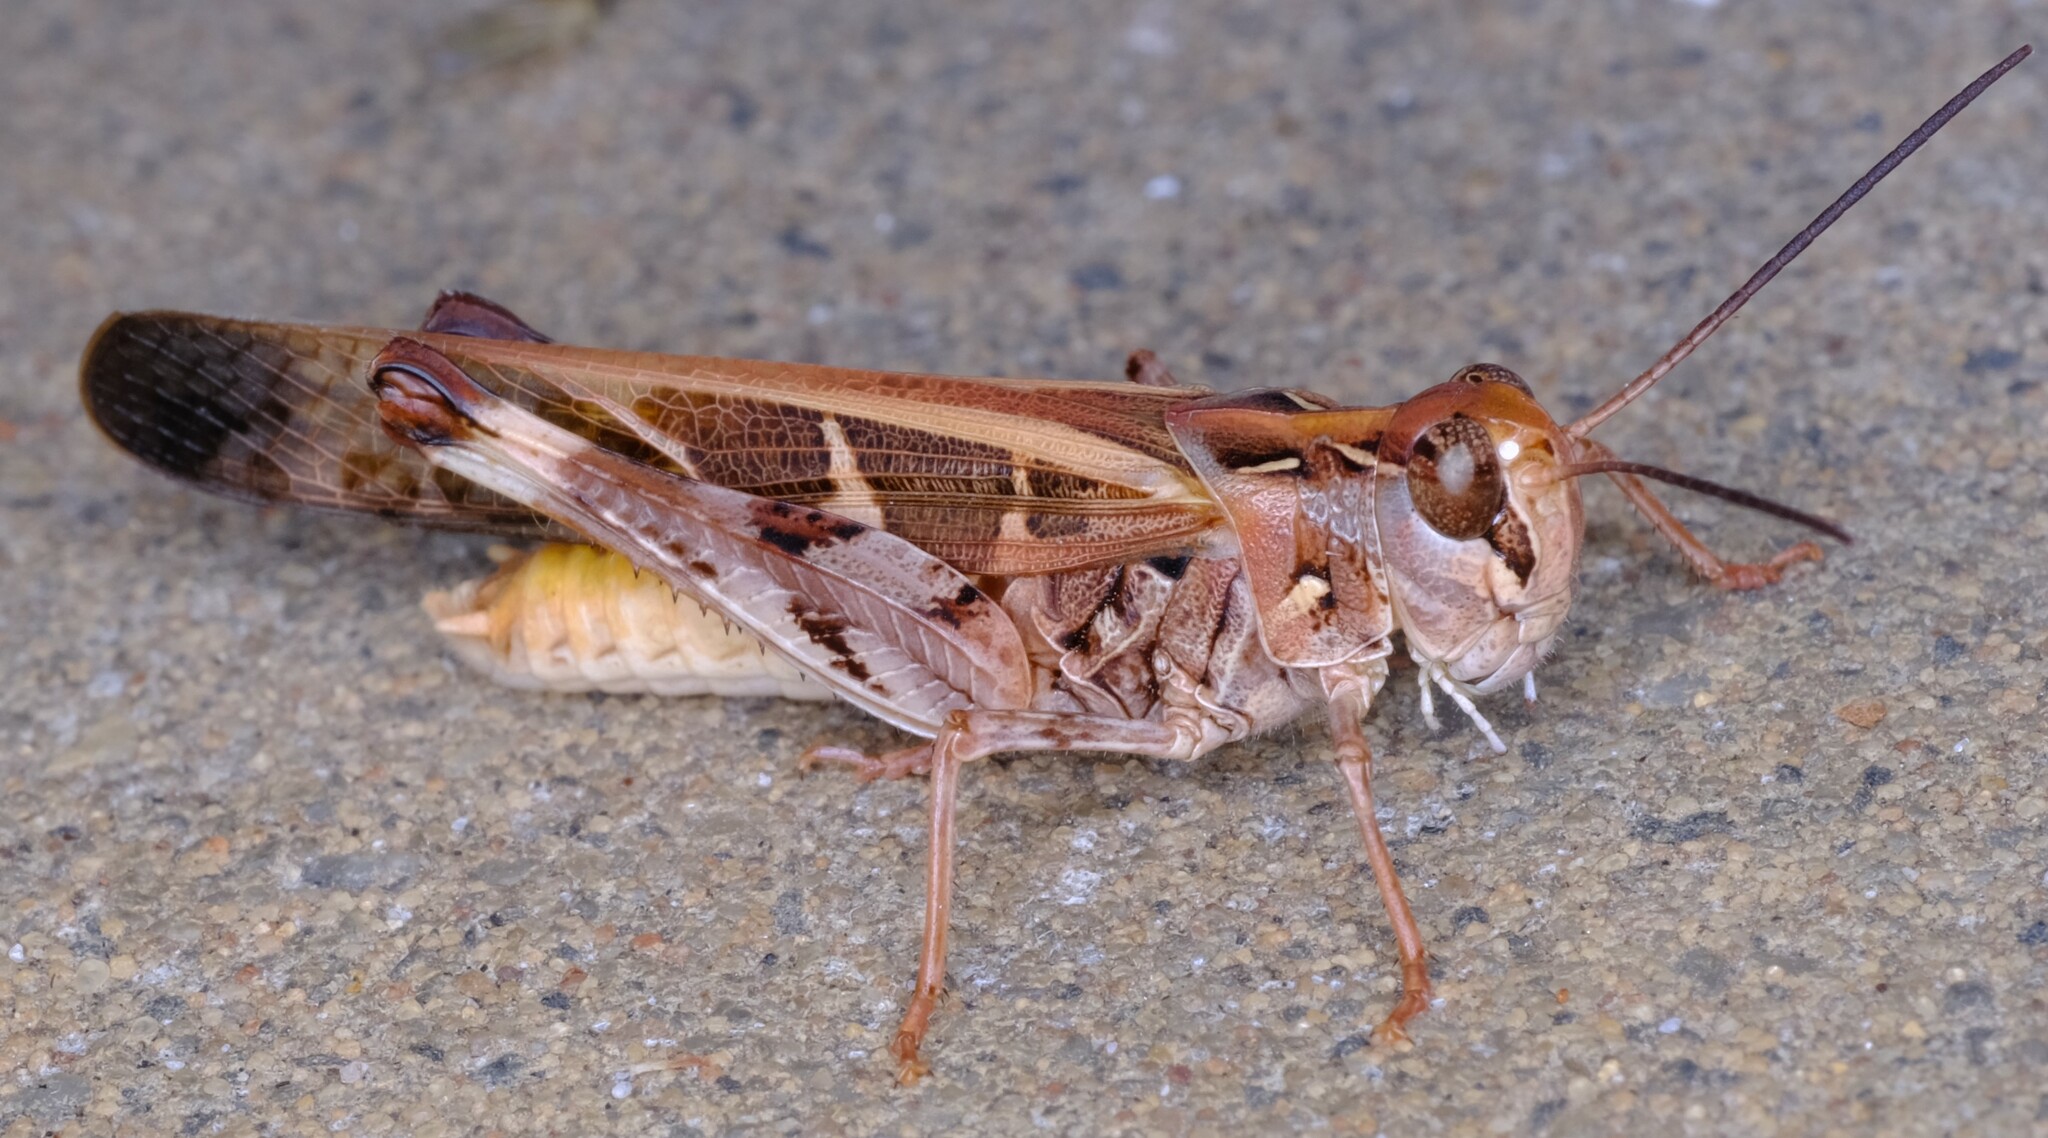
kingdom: Animalia
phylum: Arthropoda
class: Insecta
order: Orthoptera
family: Acrididae
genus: Oedaleus
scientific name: Oedaleus australis
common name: Eastern oedaleus
